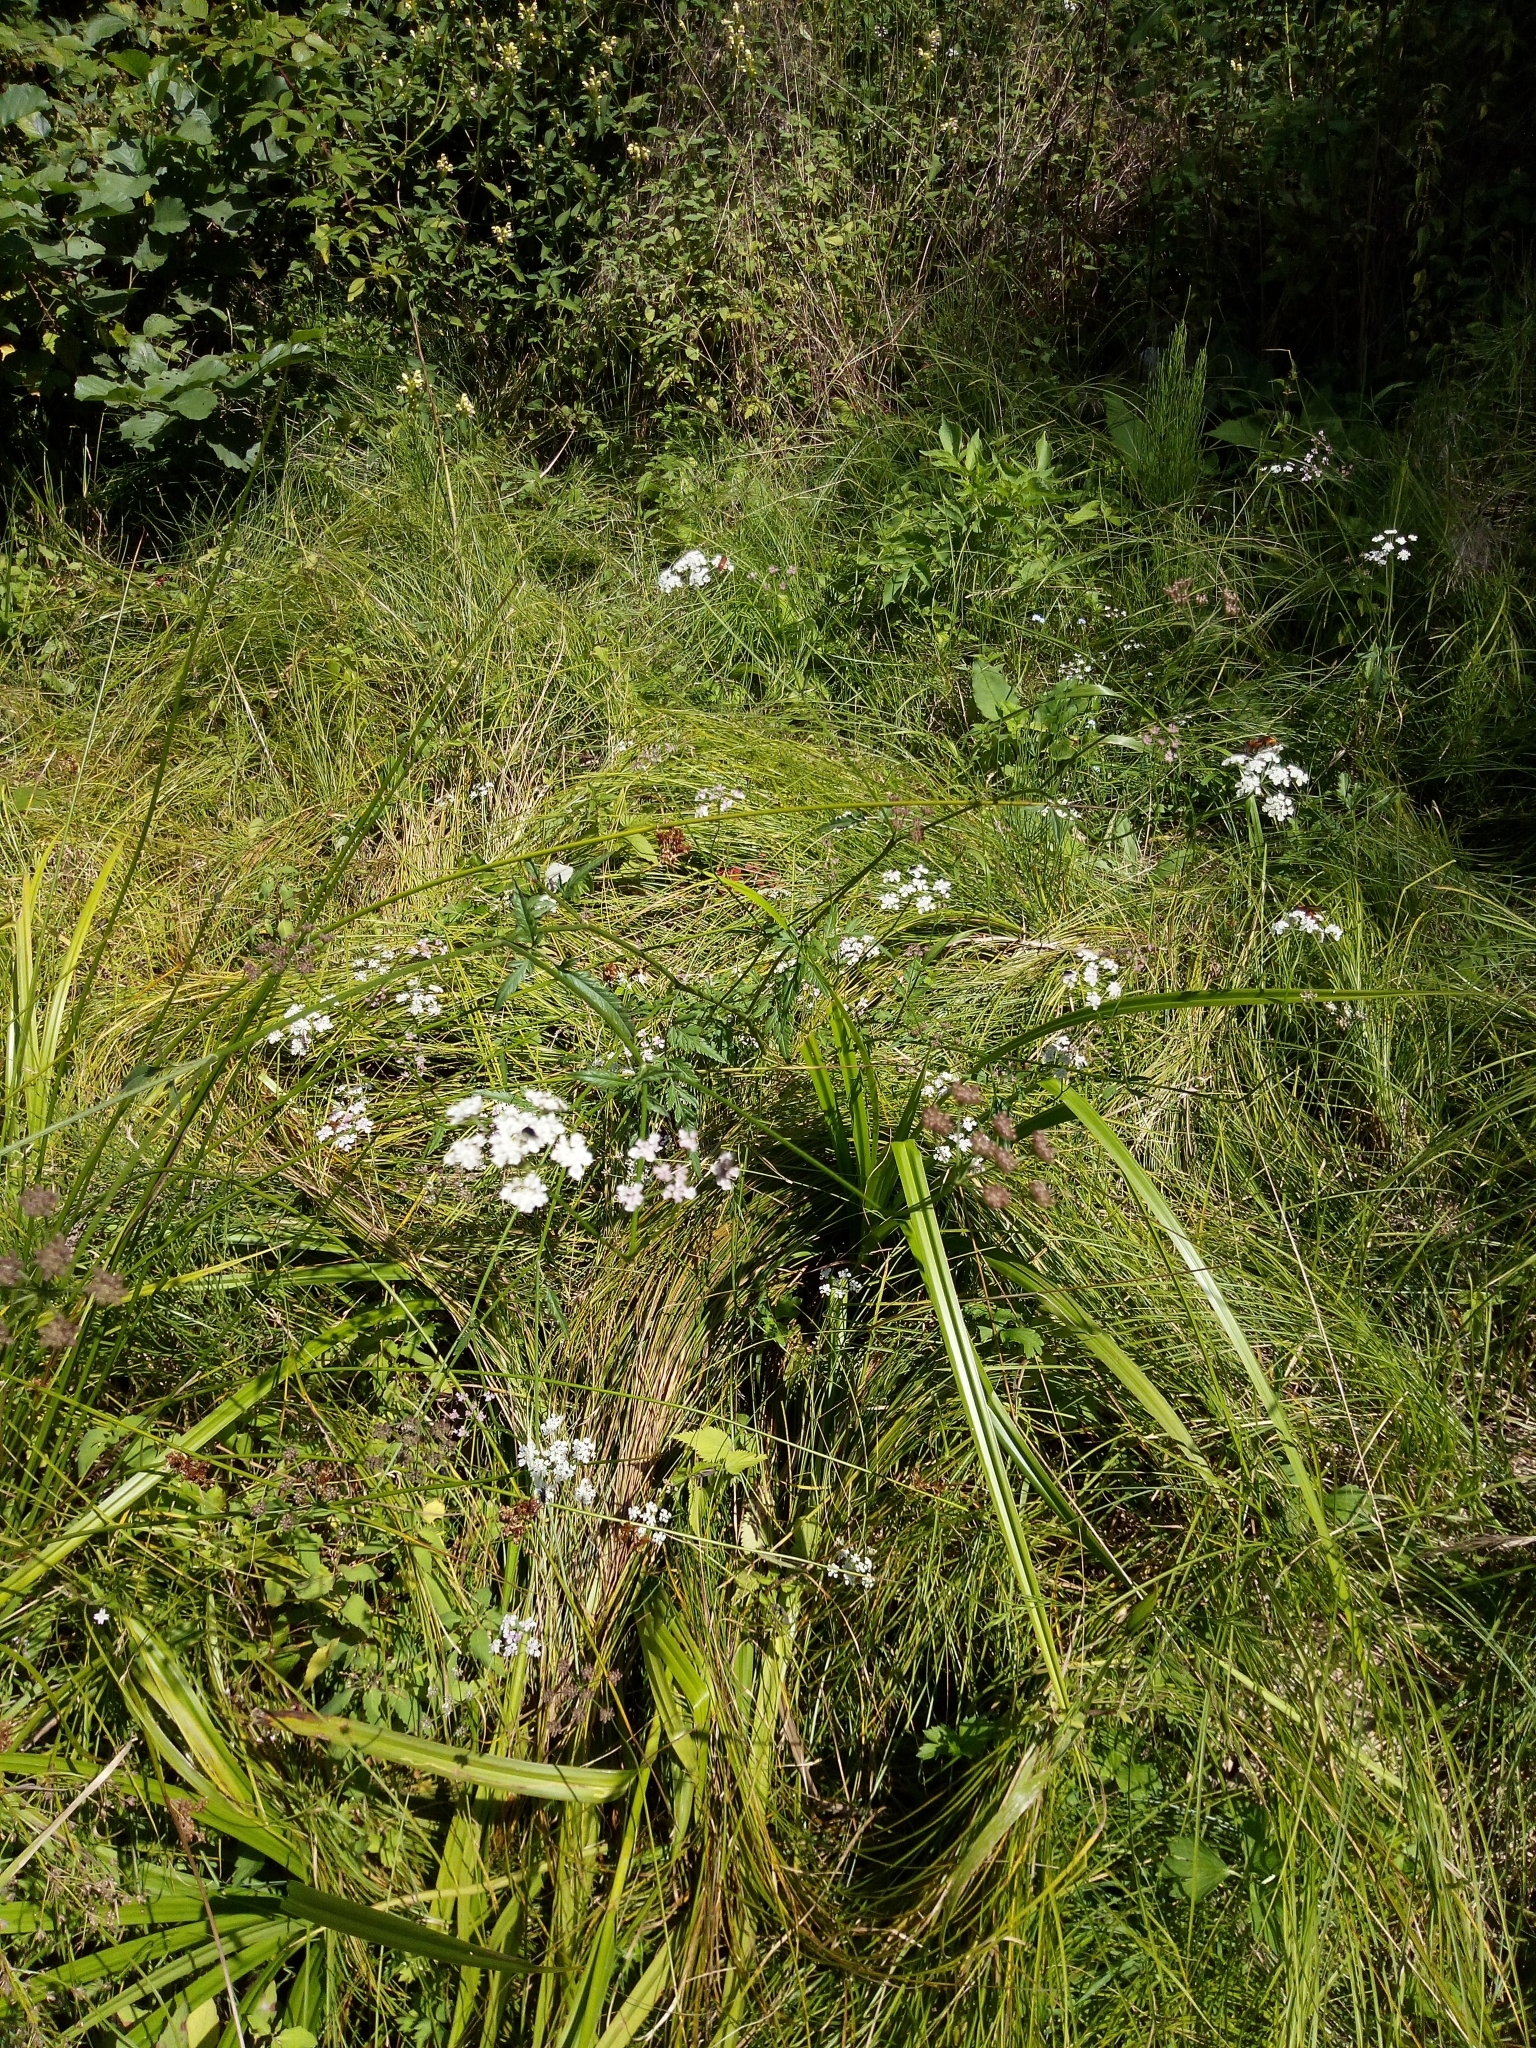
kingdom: Plantae
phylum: Tracheophyta
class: Magnoliopsida
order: Apiales
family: Apiaceae
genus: Torilis
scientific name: Torilis japonica
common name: Upright hedge-parsley
